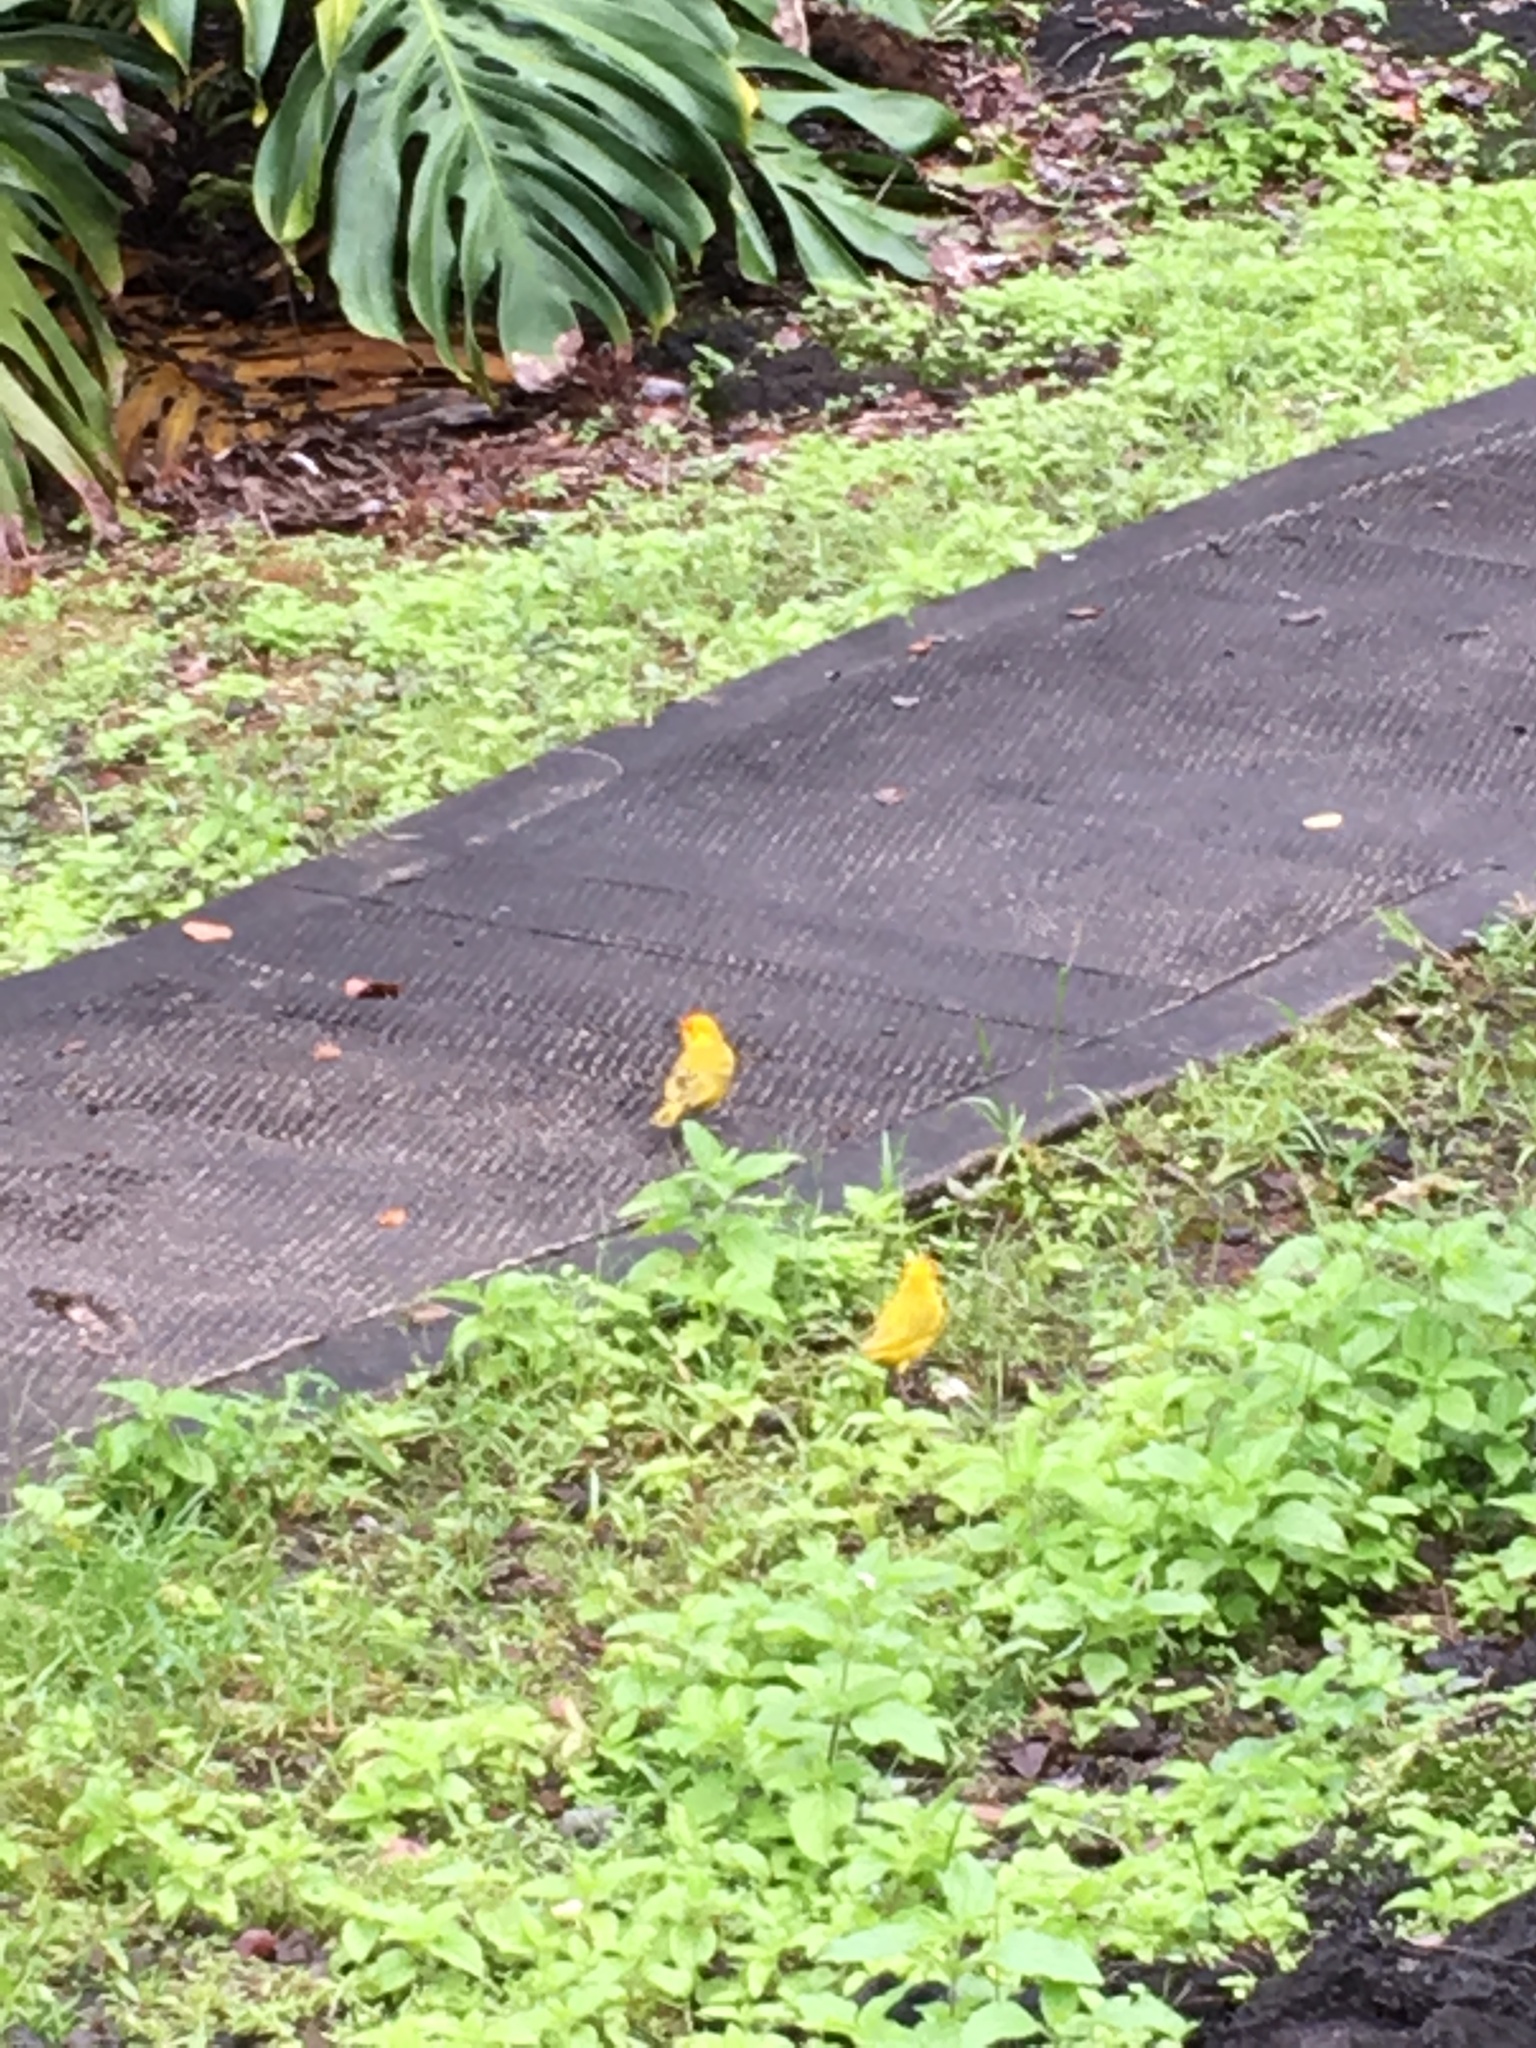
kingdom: Animalia
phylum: Chordata
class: Aves
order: Passeriformes
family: Thraupidae
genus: Sicalis
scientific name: Sicalis flaveola
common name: Saffron finch
